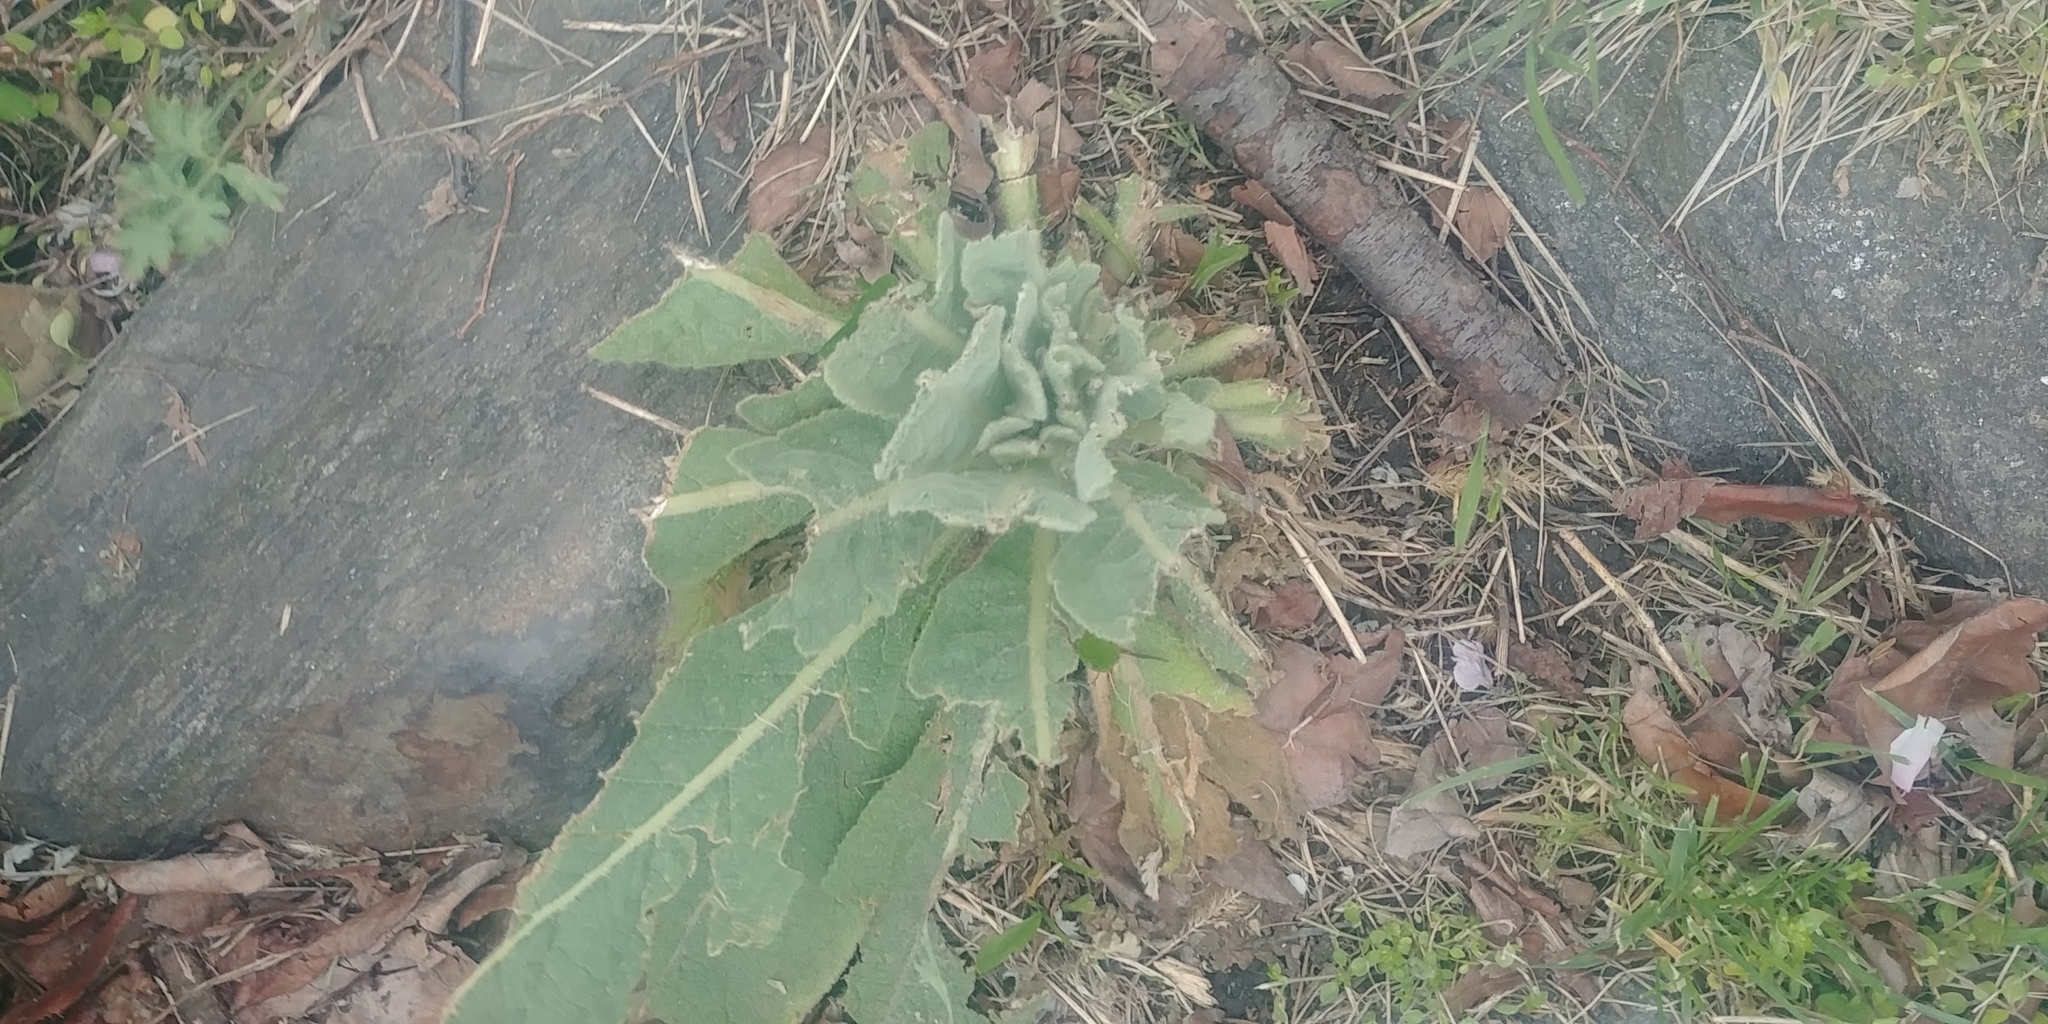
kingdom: Plantae
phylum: Tracheophyta
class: Magnoliopsida
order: Lamiales
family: Scrophulariaceae
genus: Verbascum
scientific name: Verbascum thapsus
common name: Common mullein
